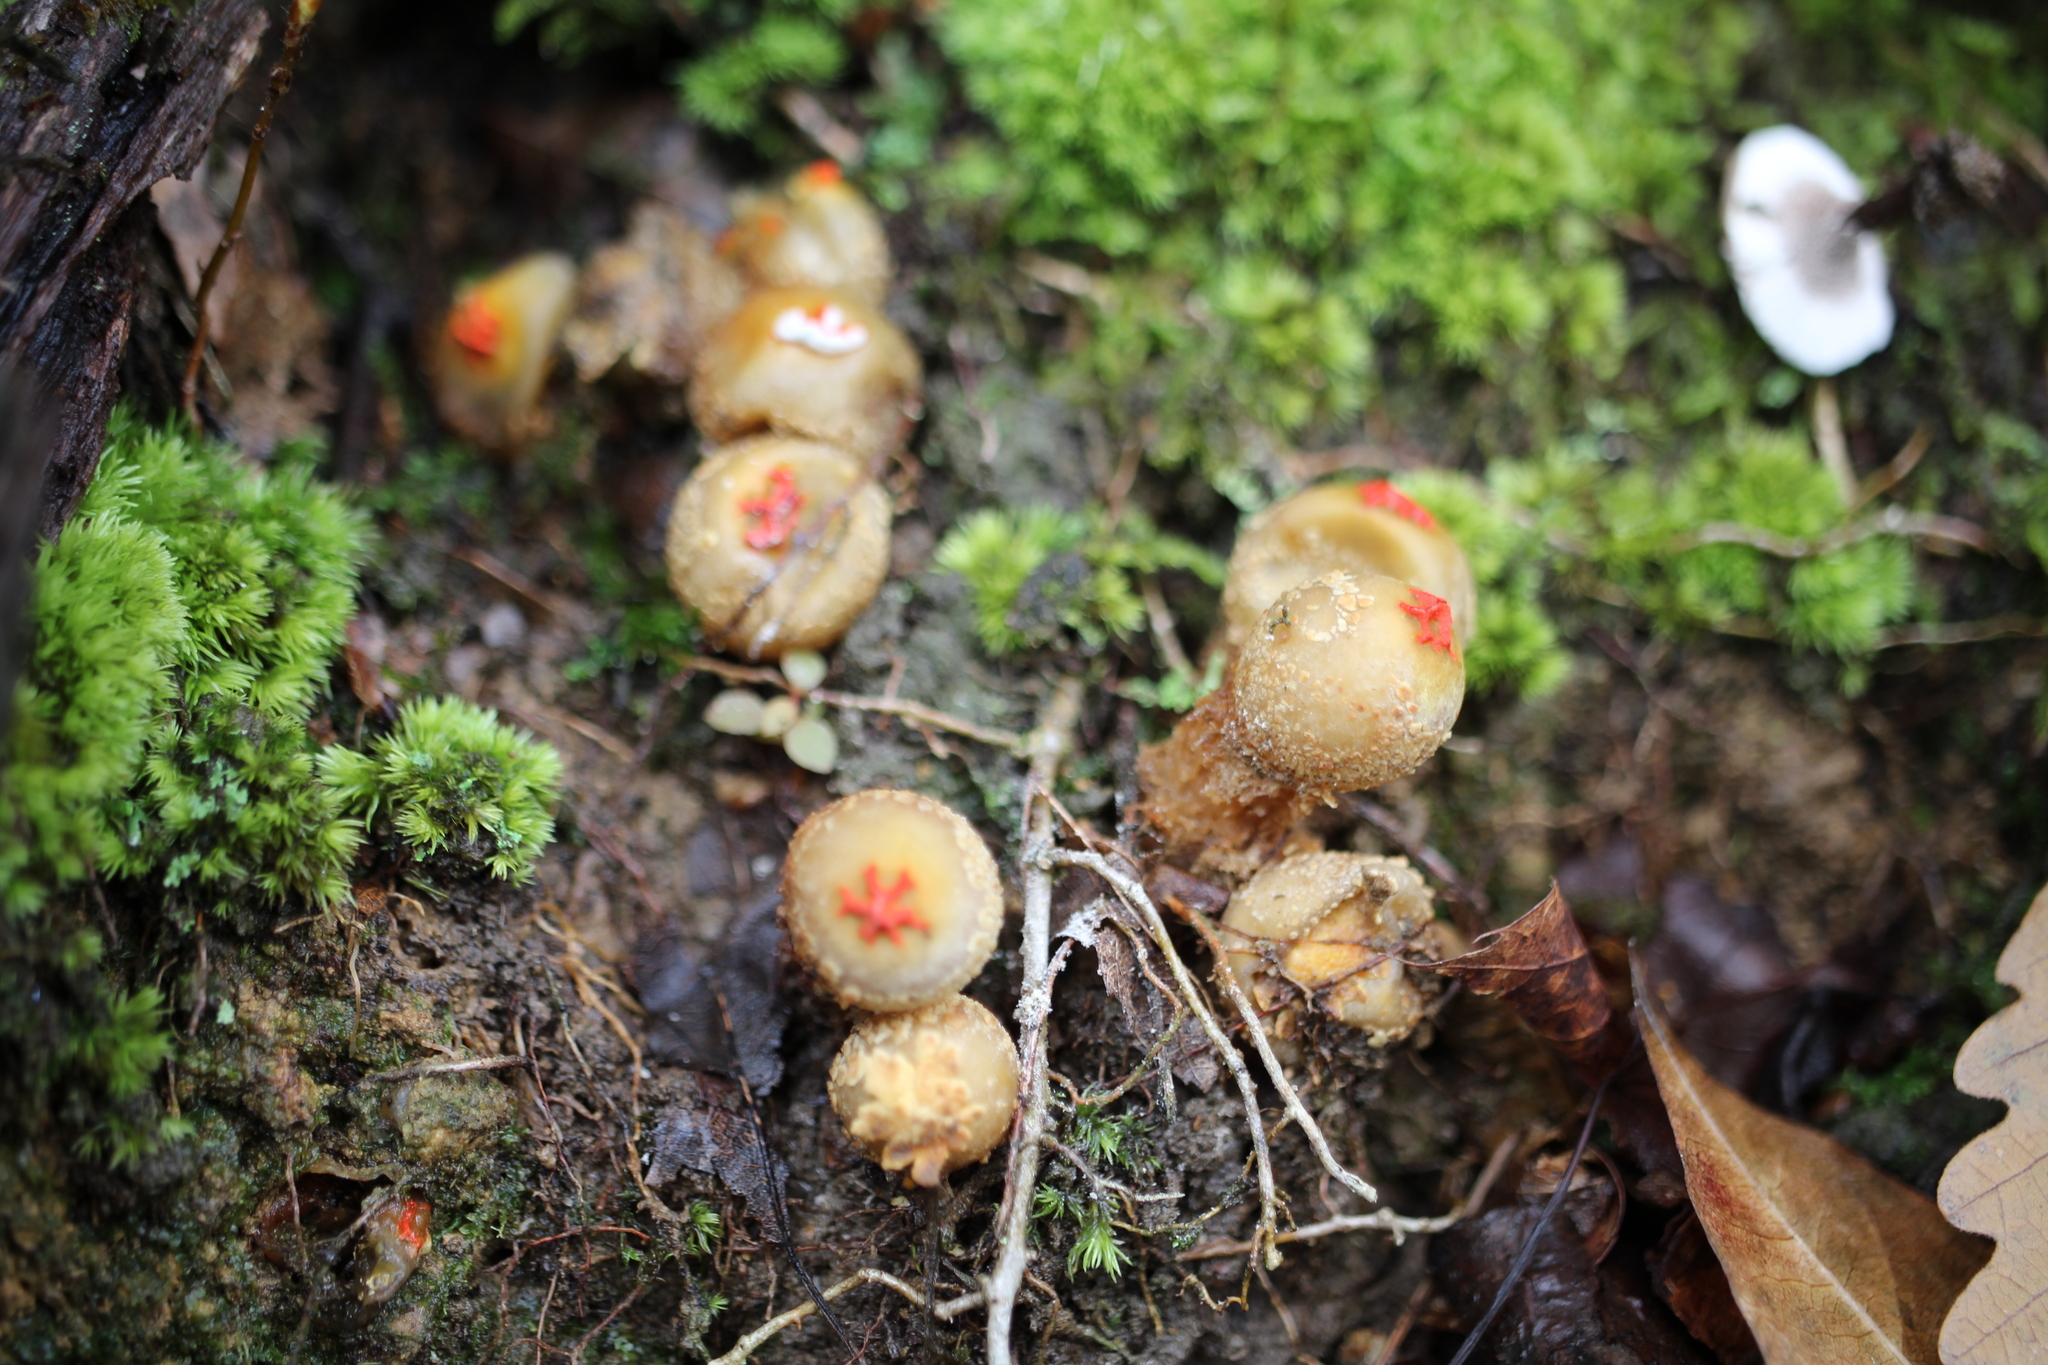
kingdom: Fungi
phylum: Basidiomycota
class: Agaricomycetes
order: Boletales
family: Calostomataceae
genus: Calostoma
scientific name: Calostoma ravenelii
